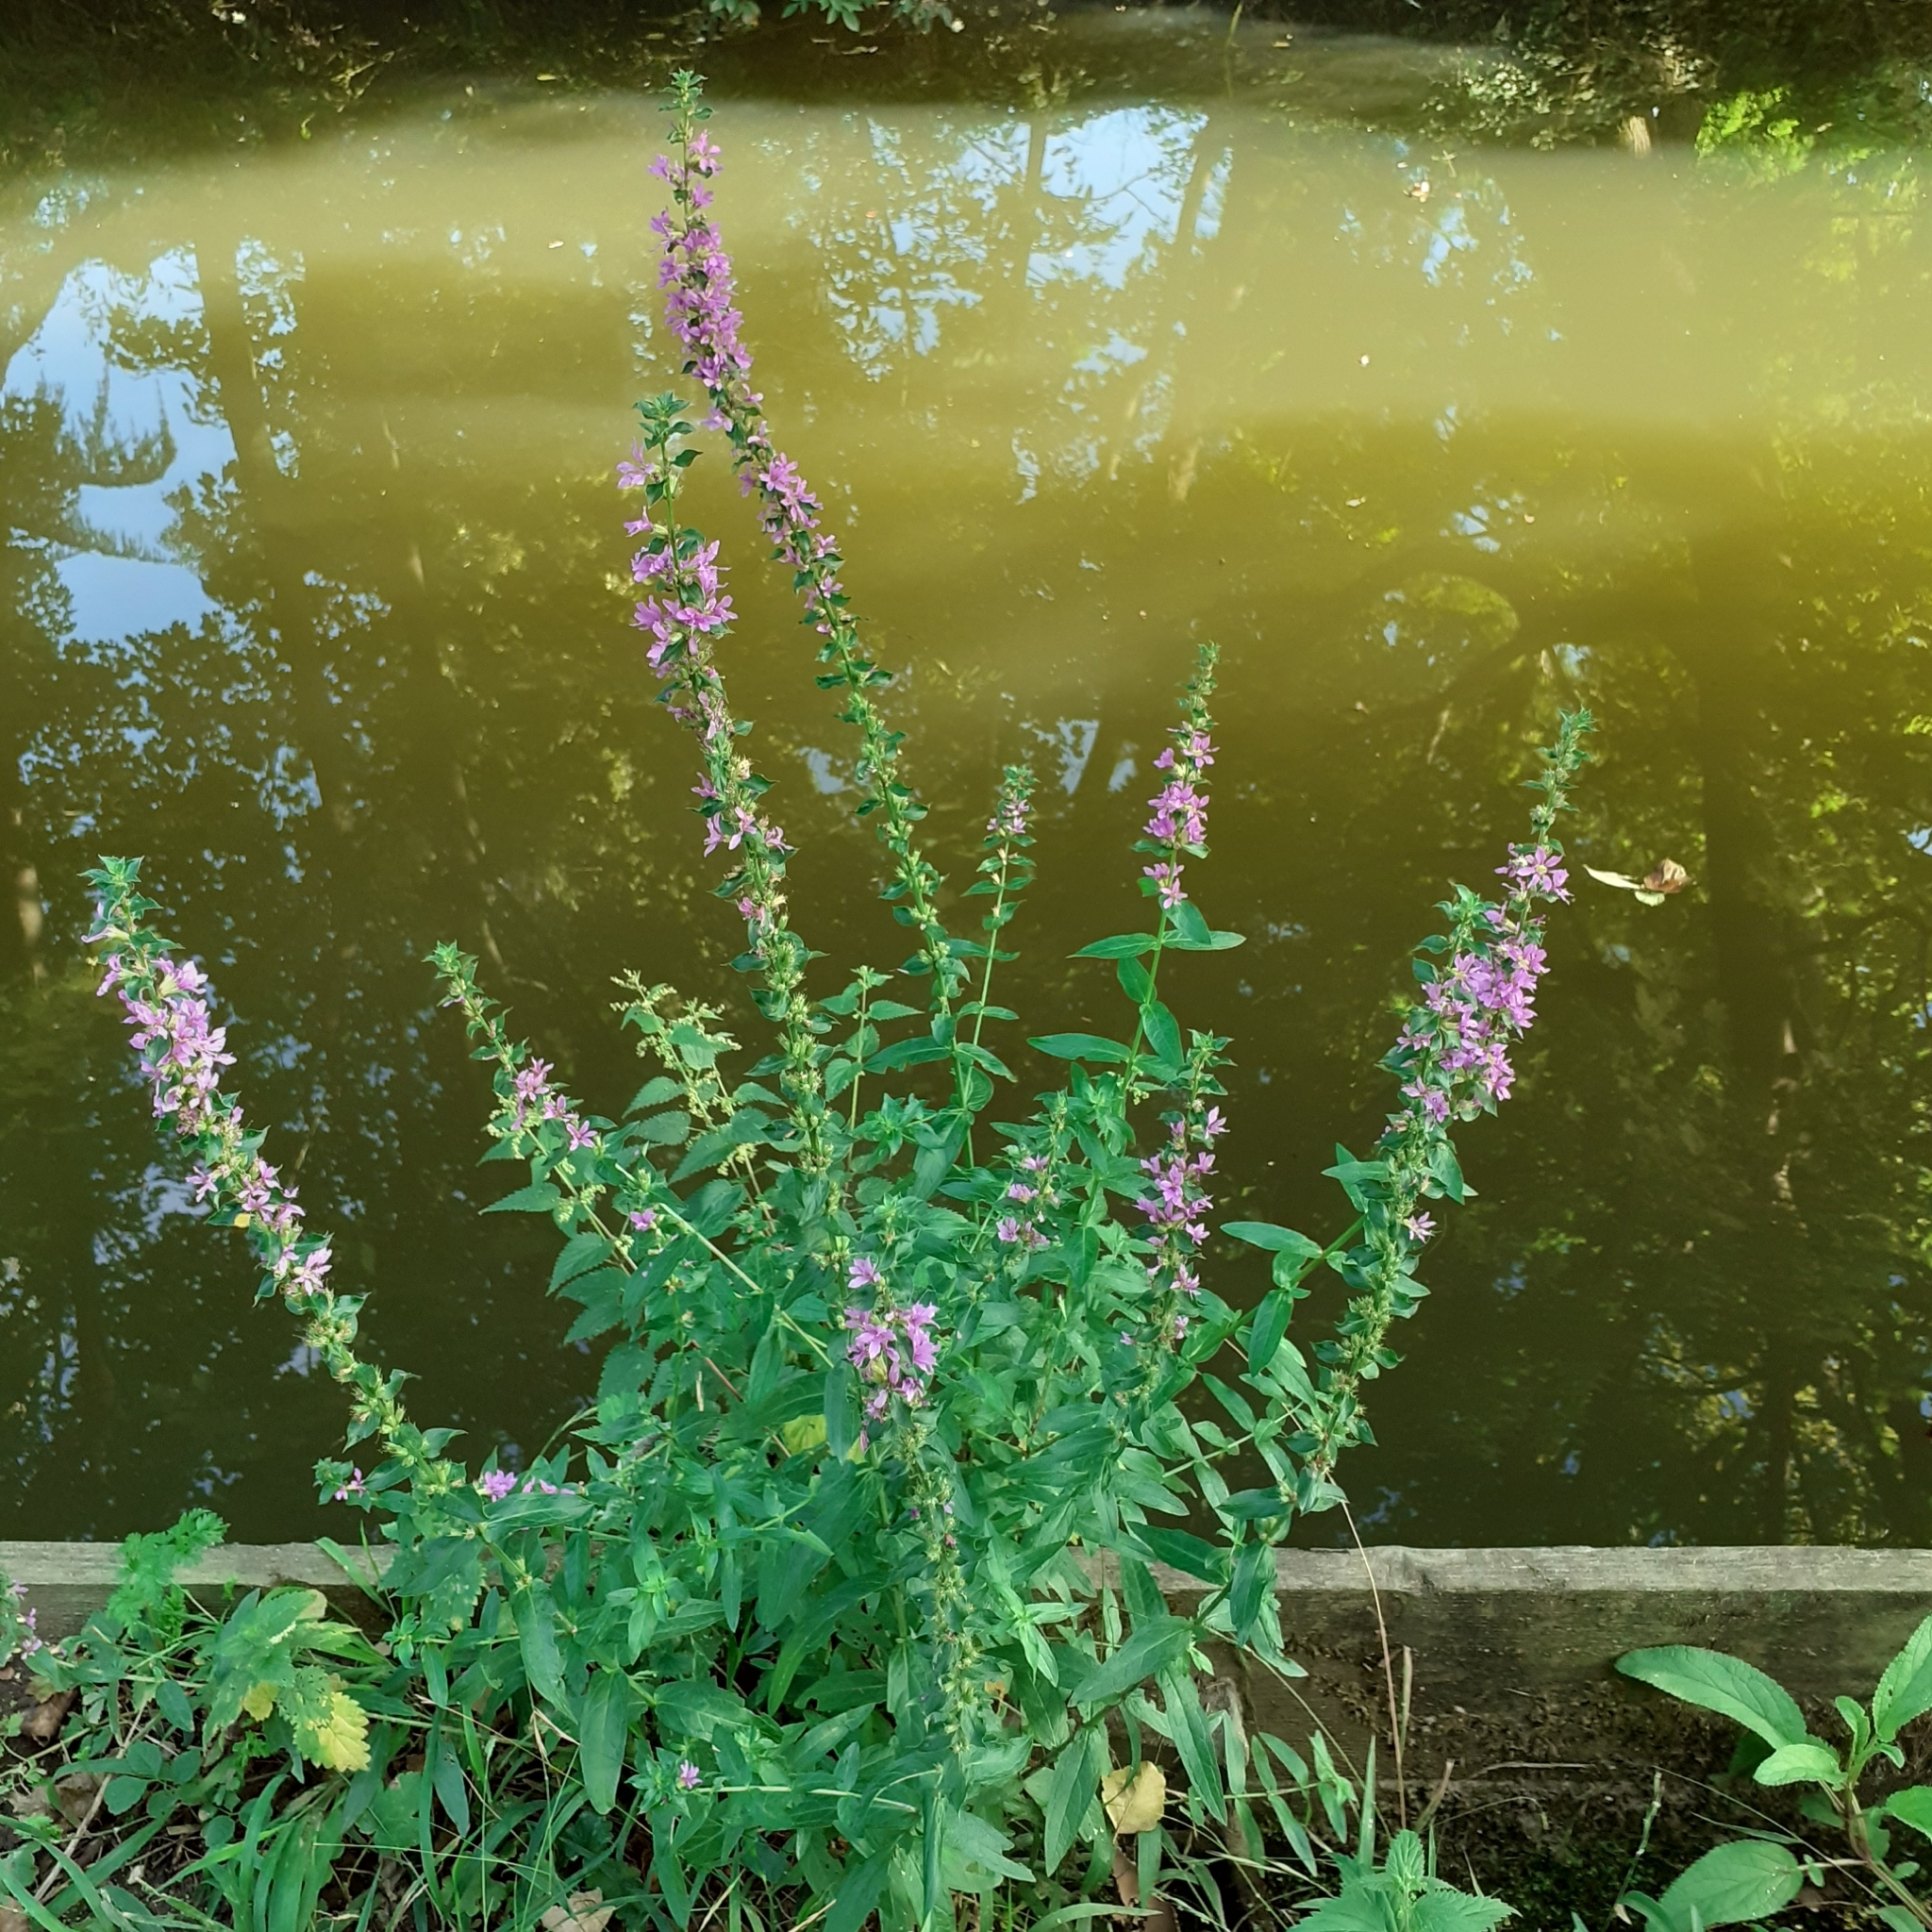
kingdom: Plantae
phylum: Tracheophyta
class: Magnoliopsida
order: Myrtales
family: Lythraceae
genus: Lythrum
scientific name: Lythrum salicaria
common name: Purple loosestrife
